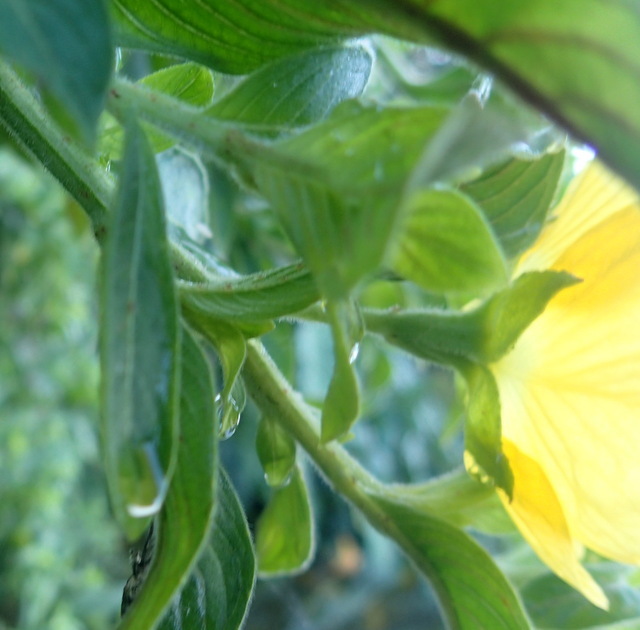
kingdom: Plantae
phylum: Tracheophyta
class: Magnoliopsida
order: Myrtales
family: Onagraceae
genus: Ludwigia
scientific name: Ludwigia peruviana
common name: Peruvian primrose-willow
